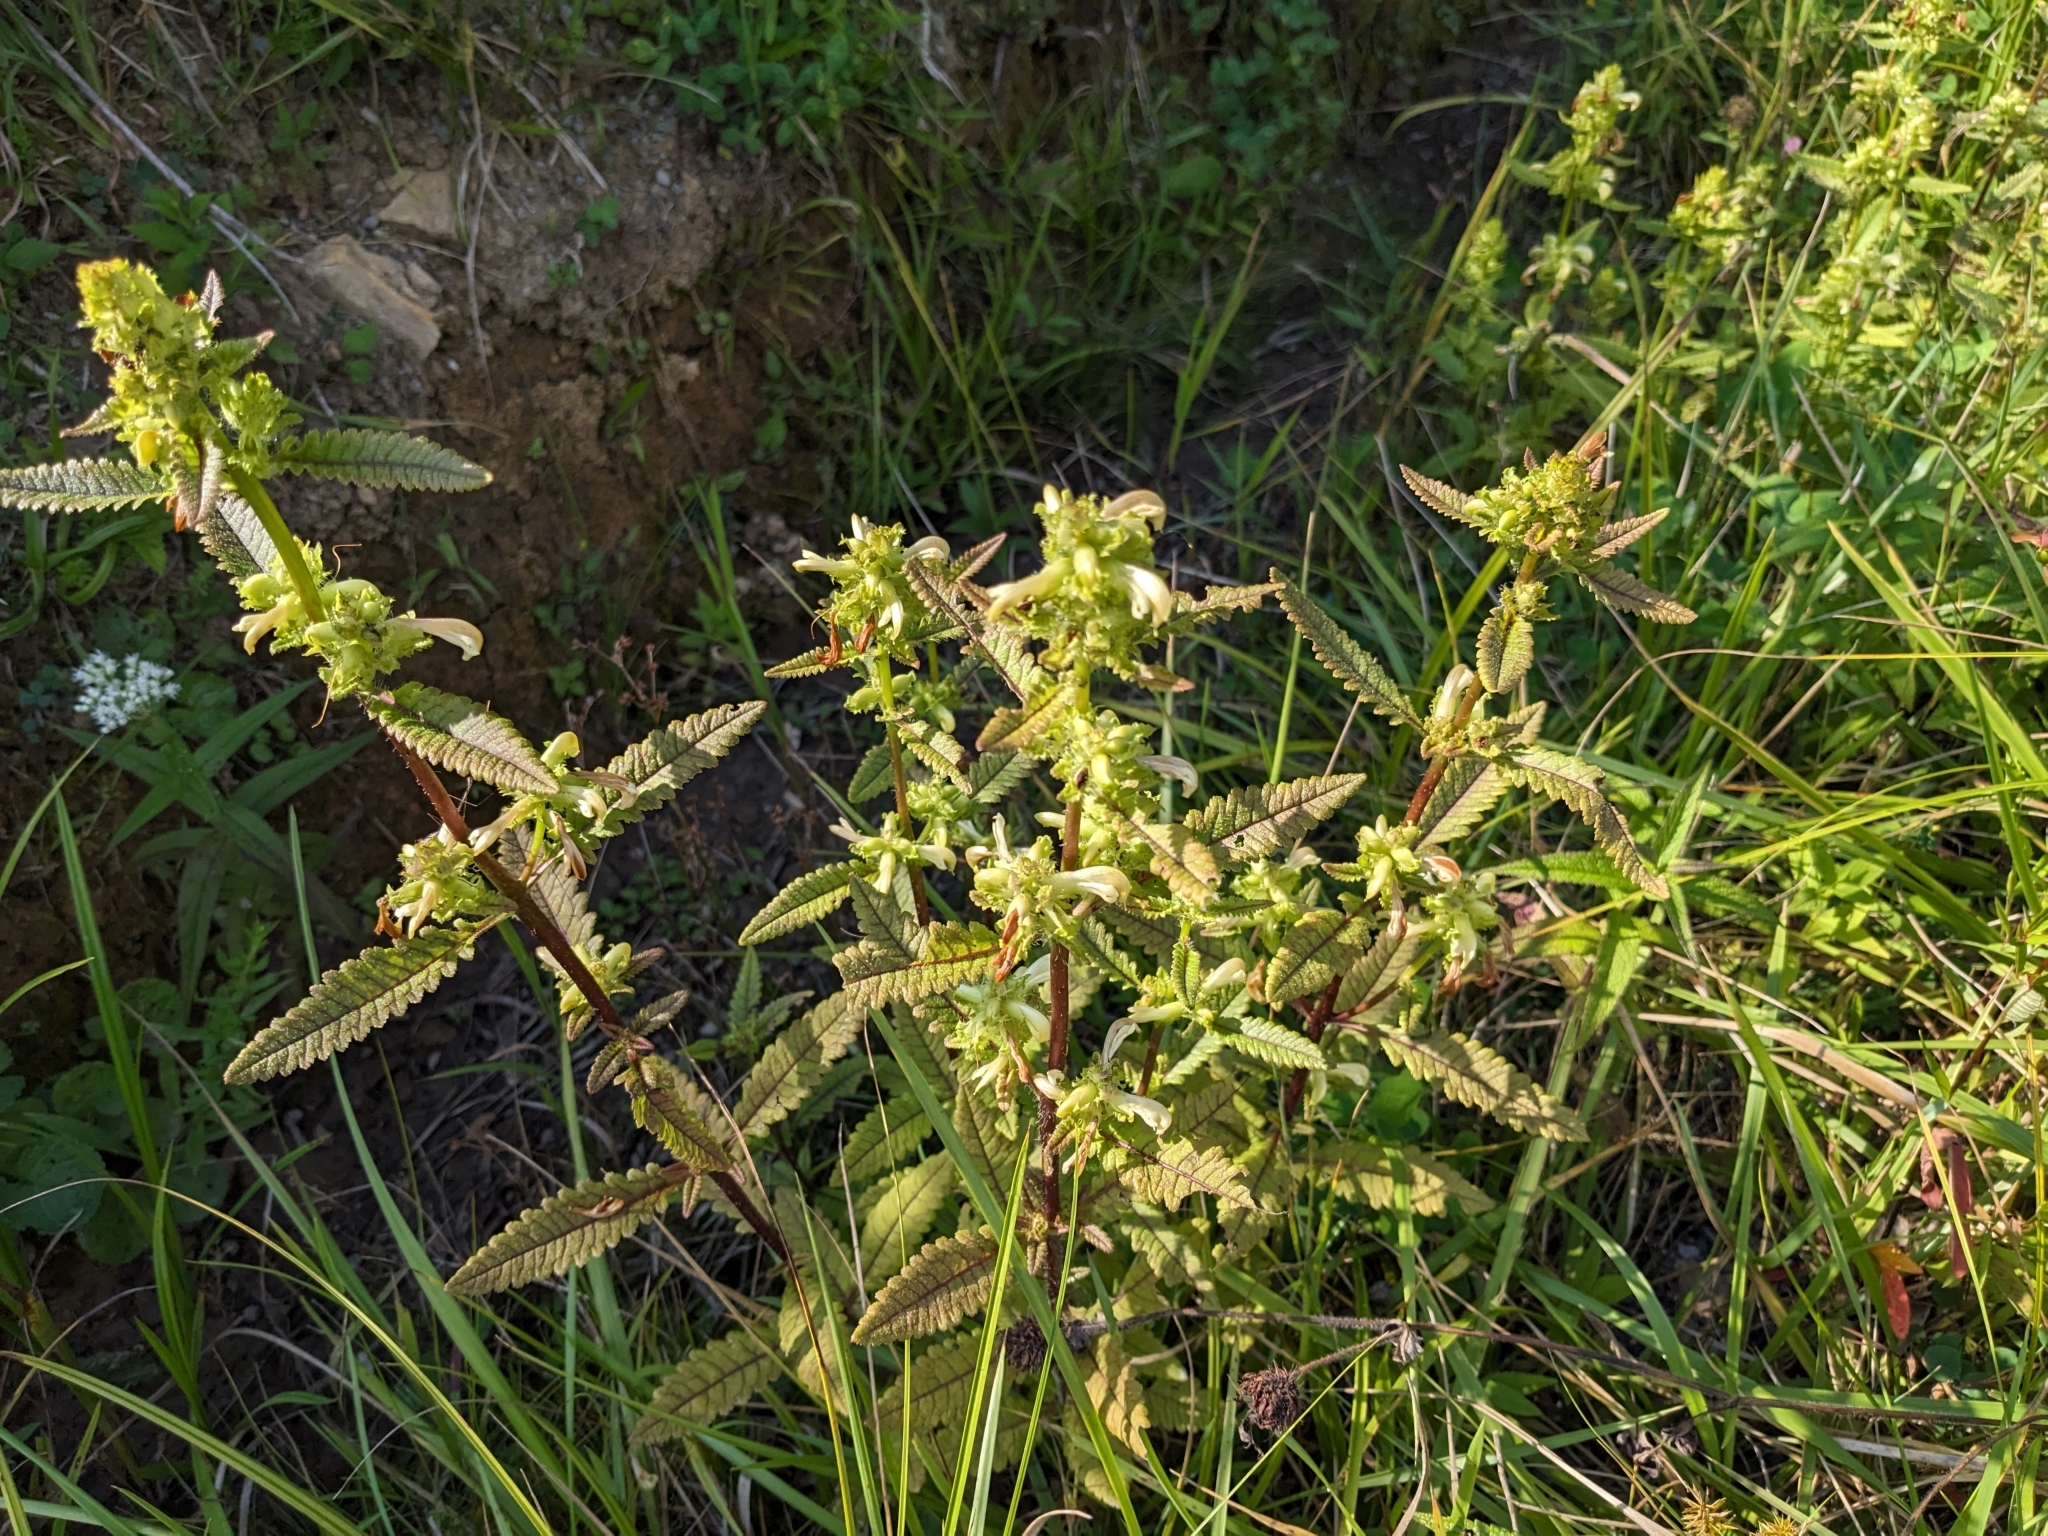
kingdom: Plantae
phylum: Tracheophyta
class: Magnoliopsida
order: Lamiales
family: Orobanchaceae
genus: Pedicularis
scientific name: Pedicularis lanceolata
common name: Swamp lousewort
